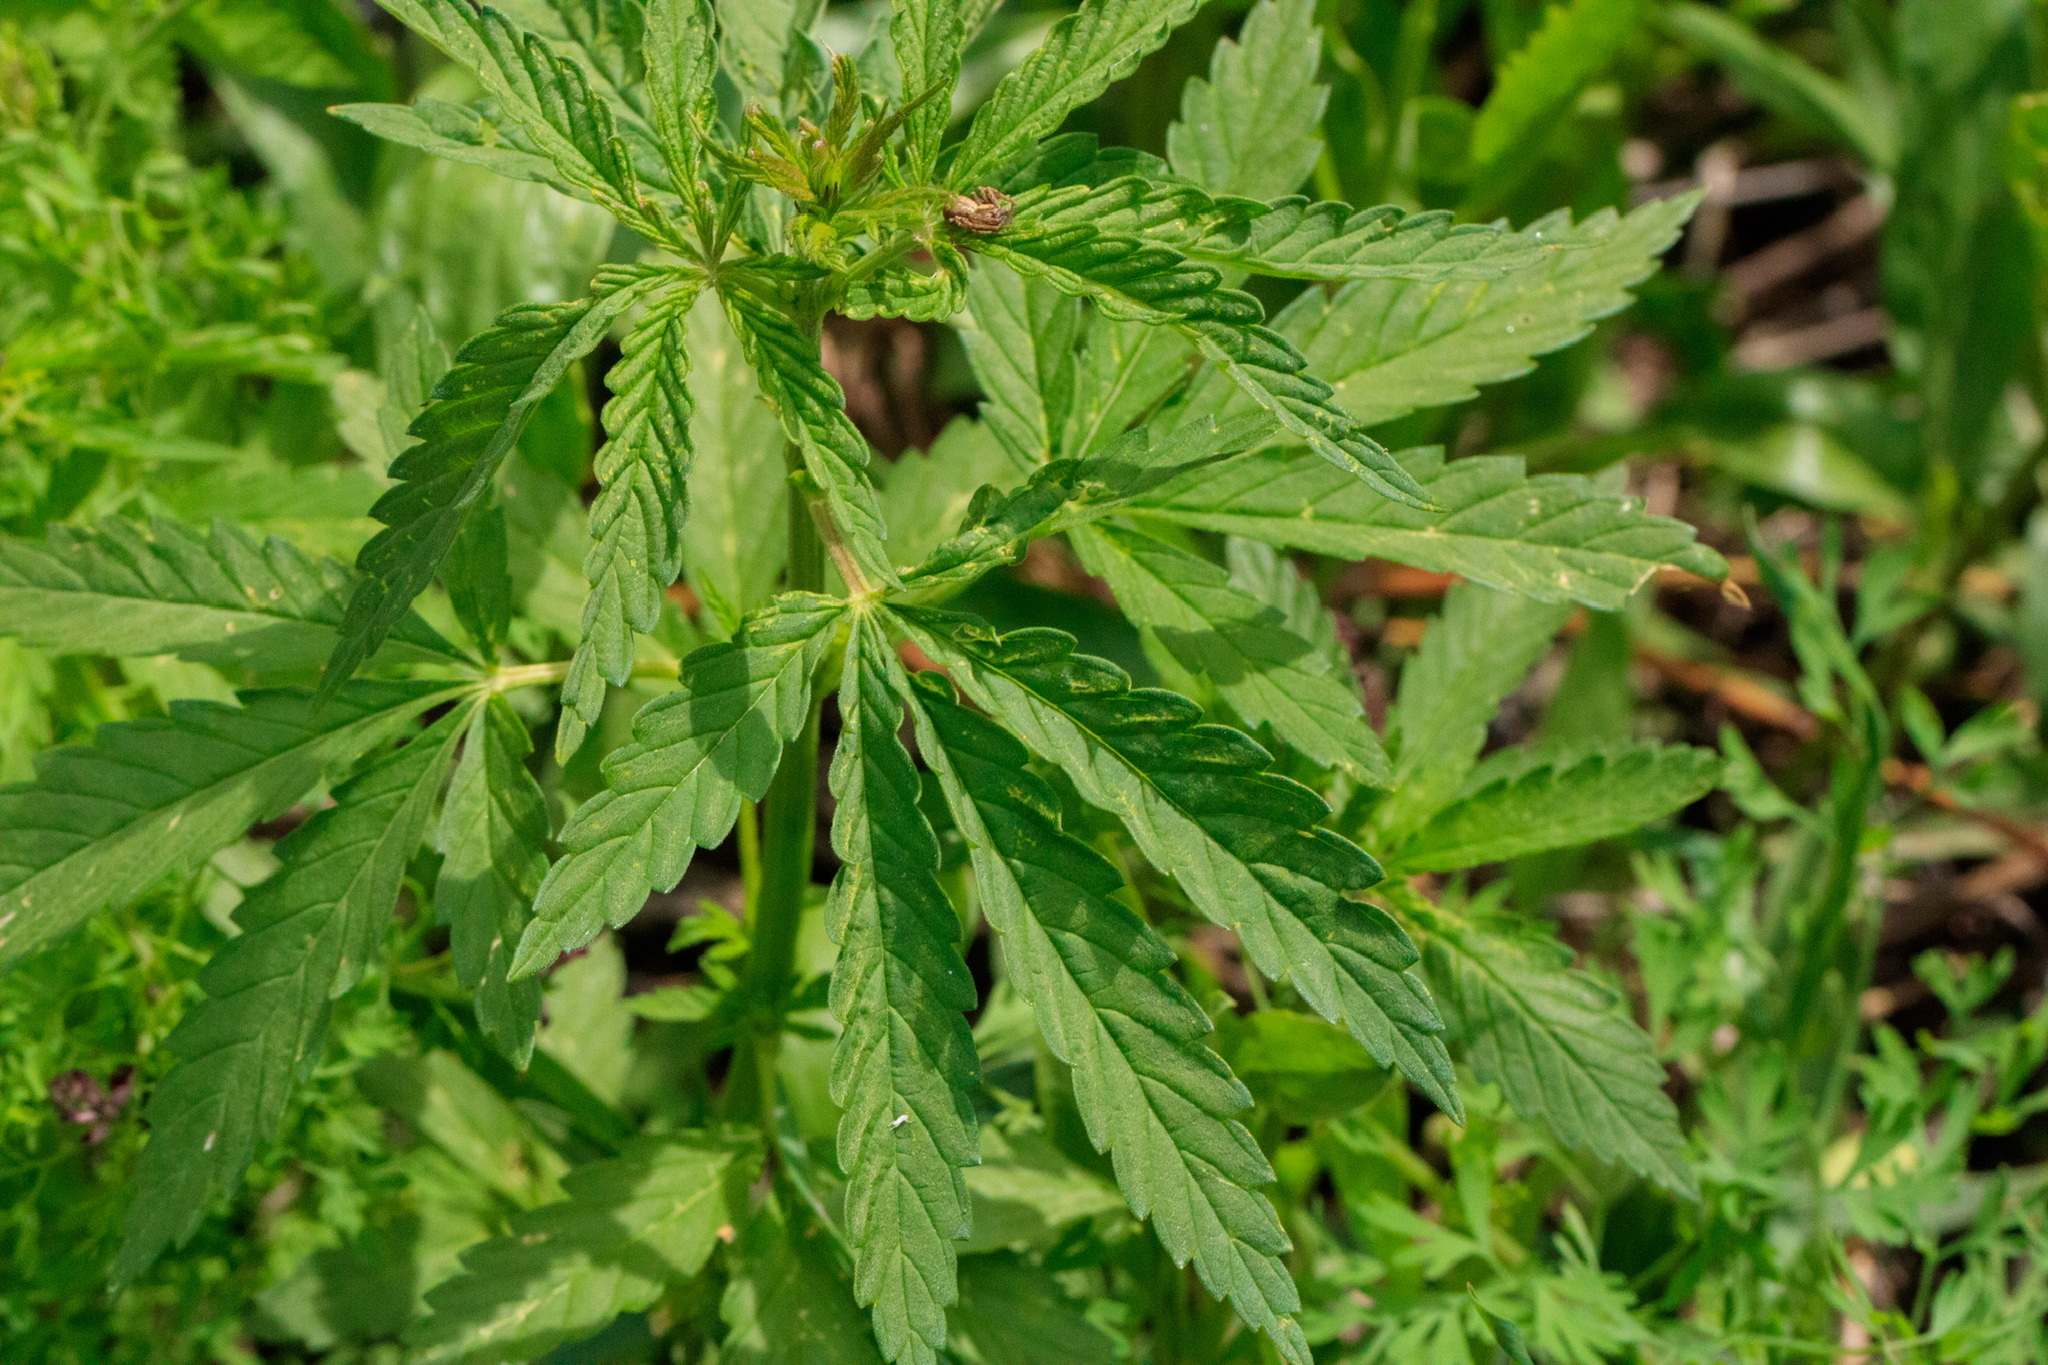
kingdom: Plantae
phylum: Tracheophyta
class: Magnoliopsida
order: Rosales
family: Cannabaceae
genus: Cannabis
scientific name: Cannabis sativa
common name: Hemp
